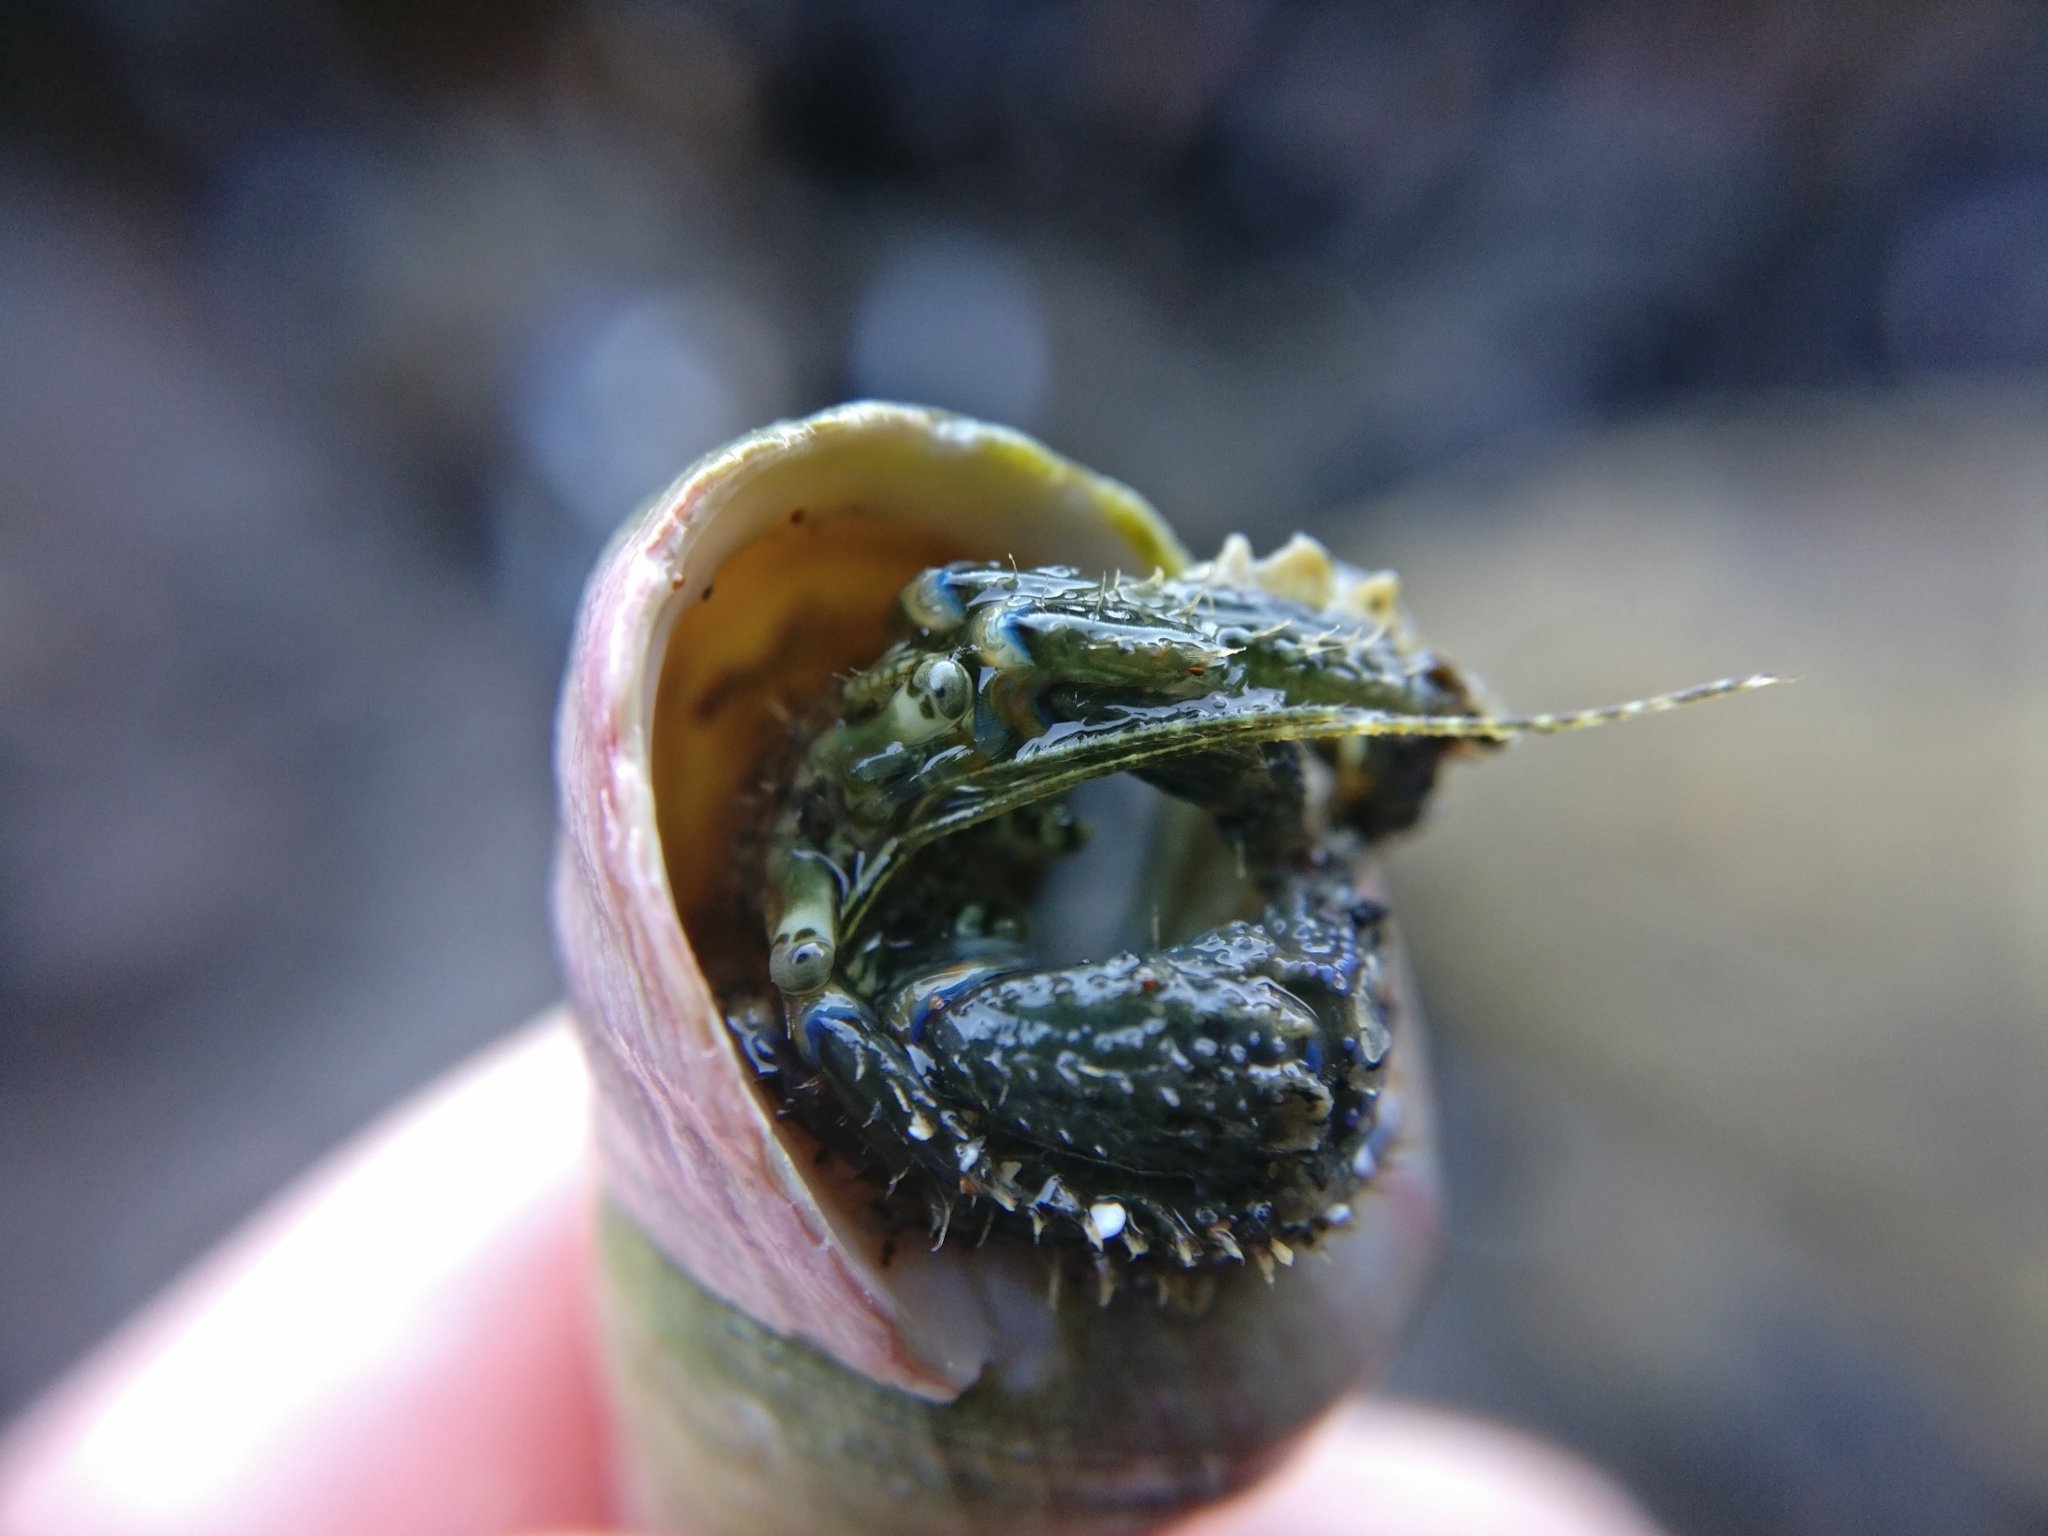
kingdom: Animalia
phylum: Arthropoda
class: Malacostraca
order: Decapoda
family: Paguridae
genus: Pagurus
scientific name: Pagurus novizealandiae
